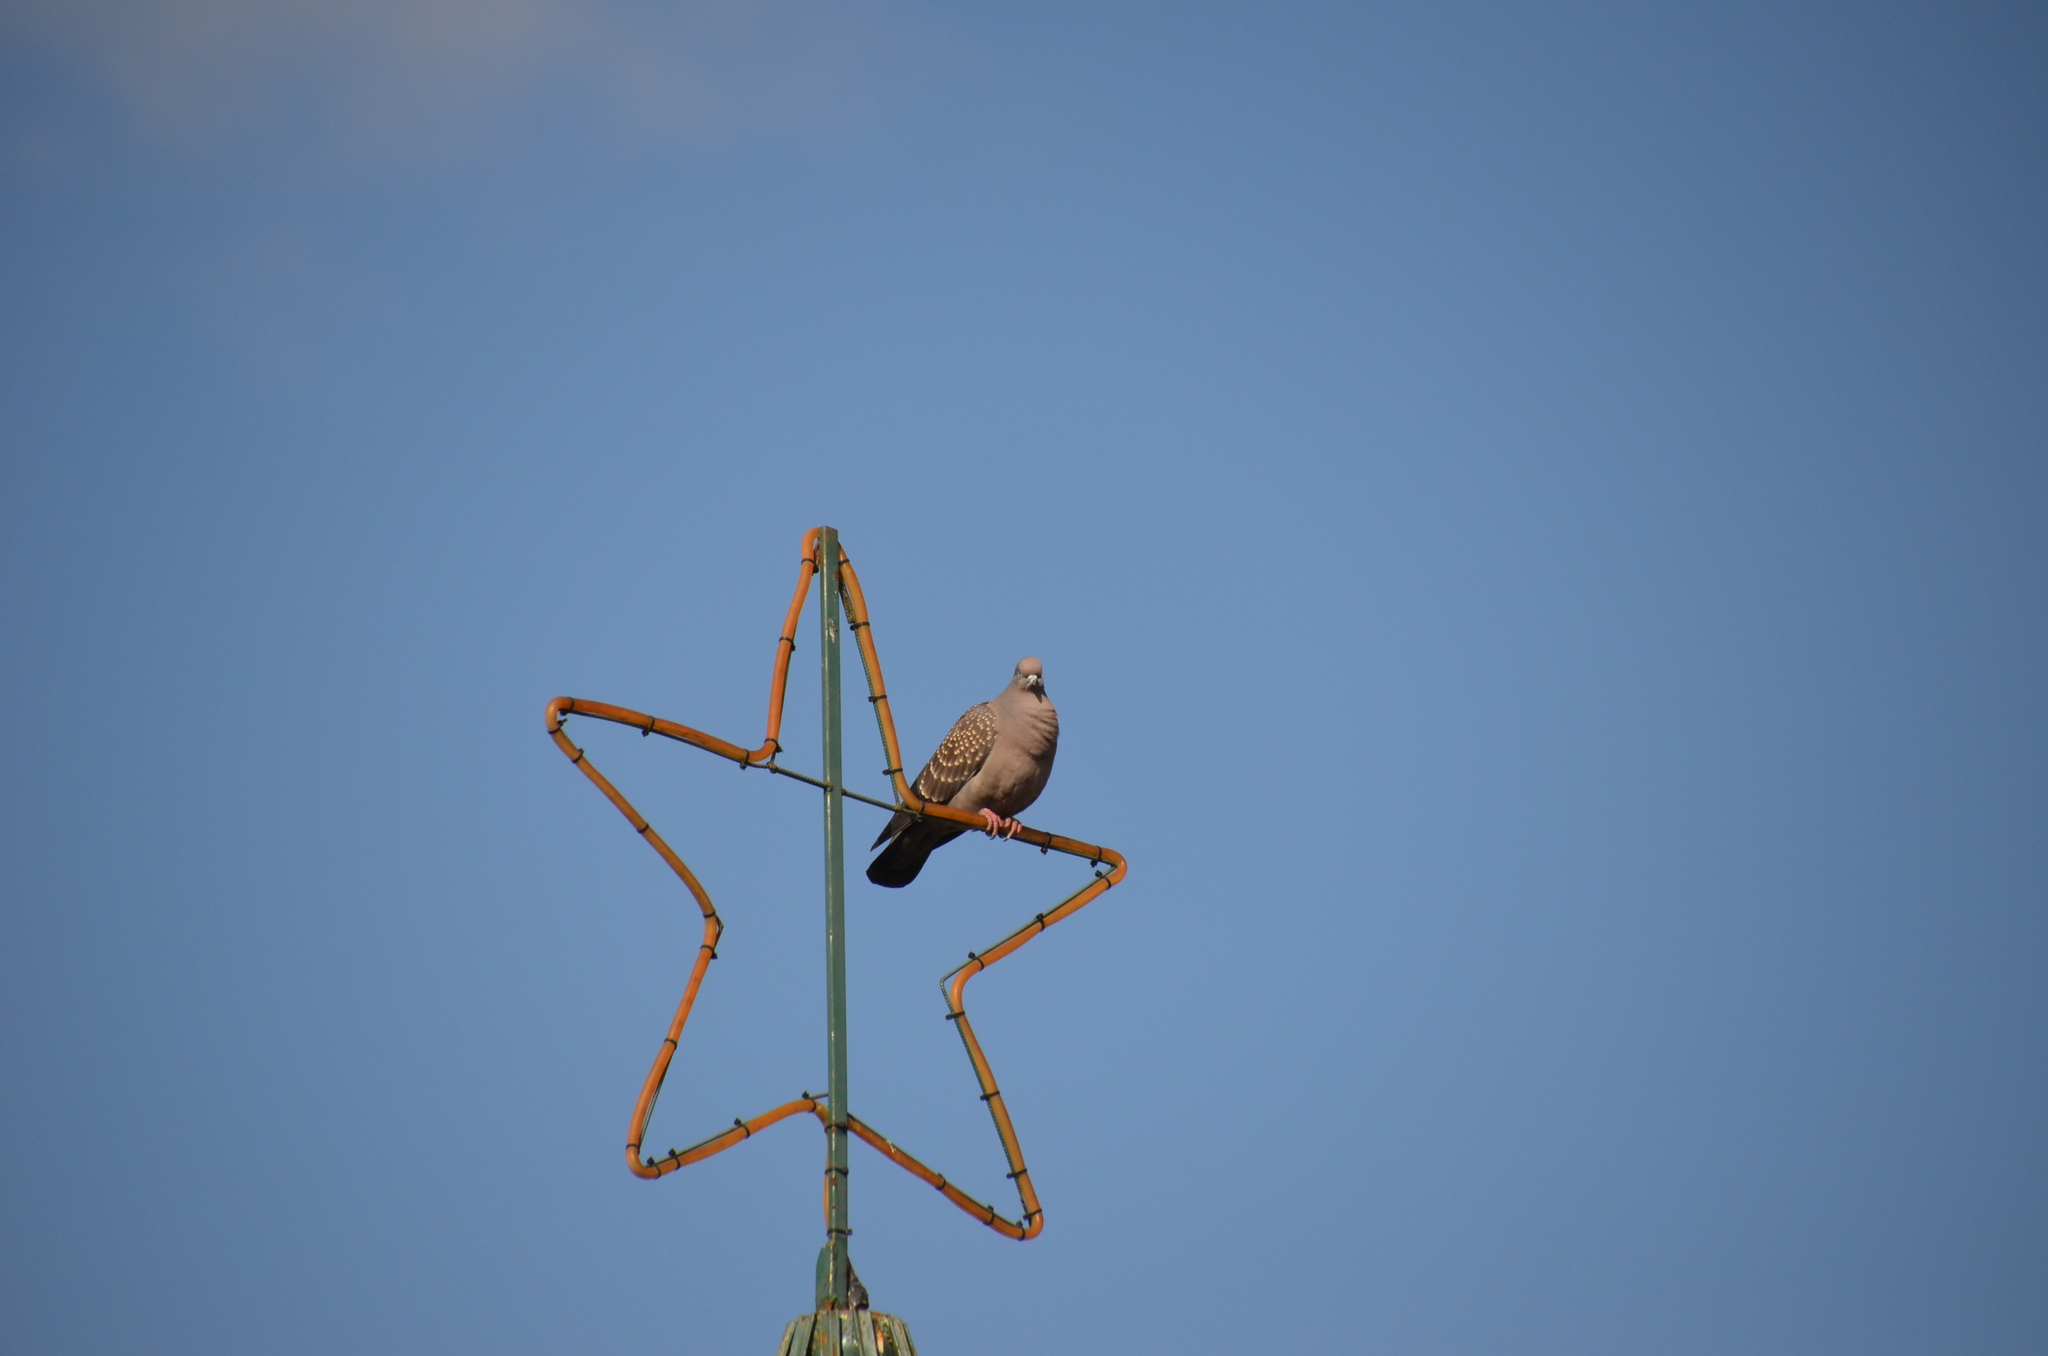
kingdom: Animalia
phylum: Chordata
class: Aves
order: Columbiformes
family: Columbidae
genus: Patagioenas
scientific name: Patagioenas maculosa
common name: Spot-winged pigeon
